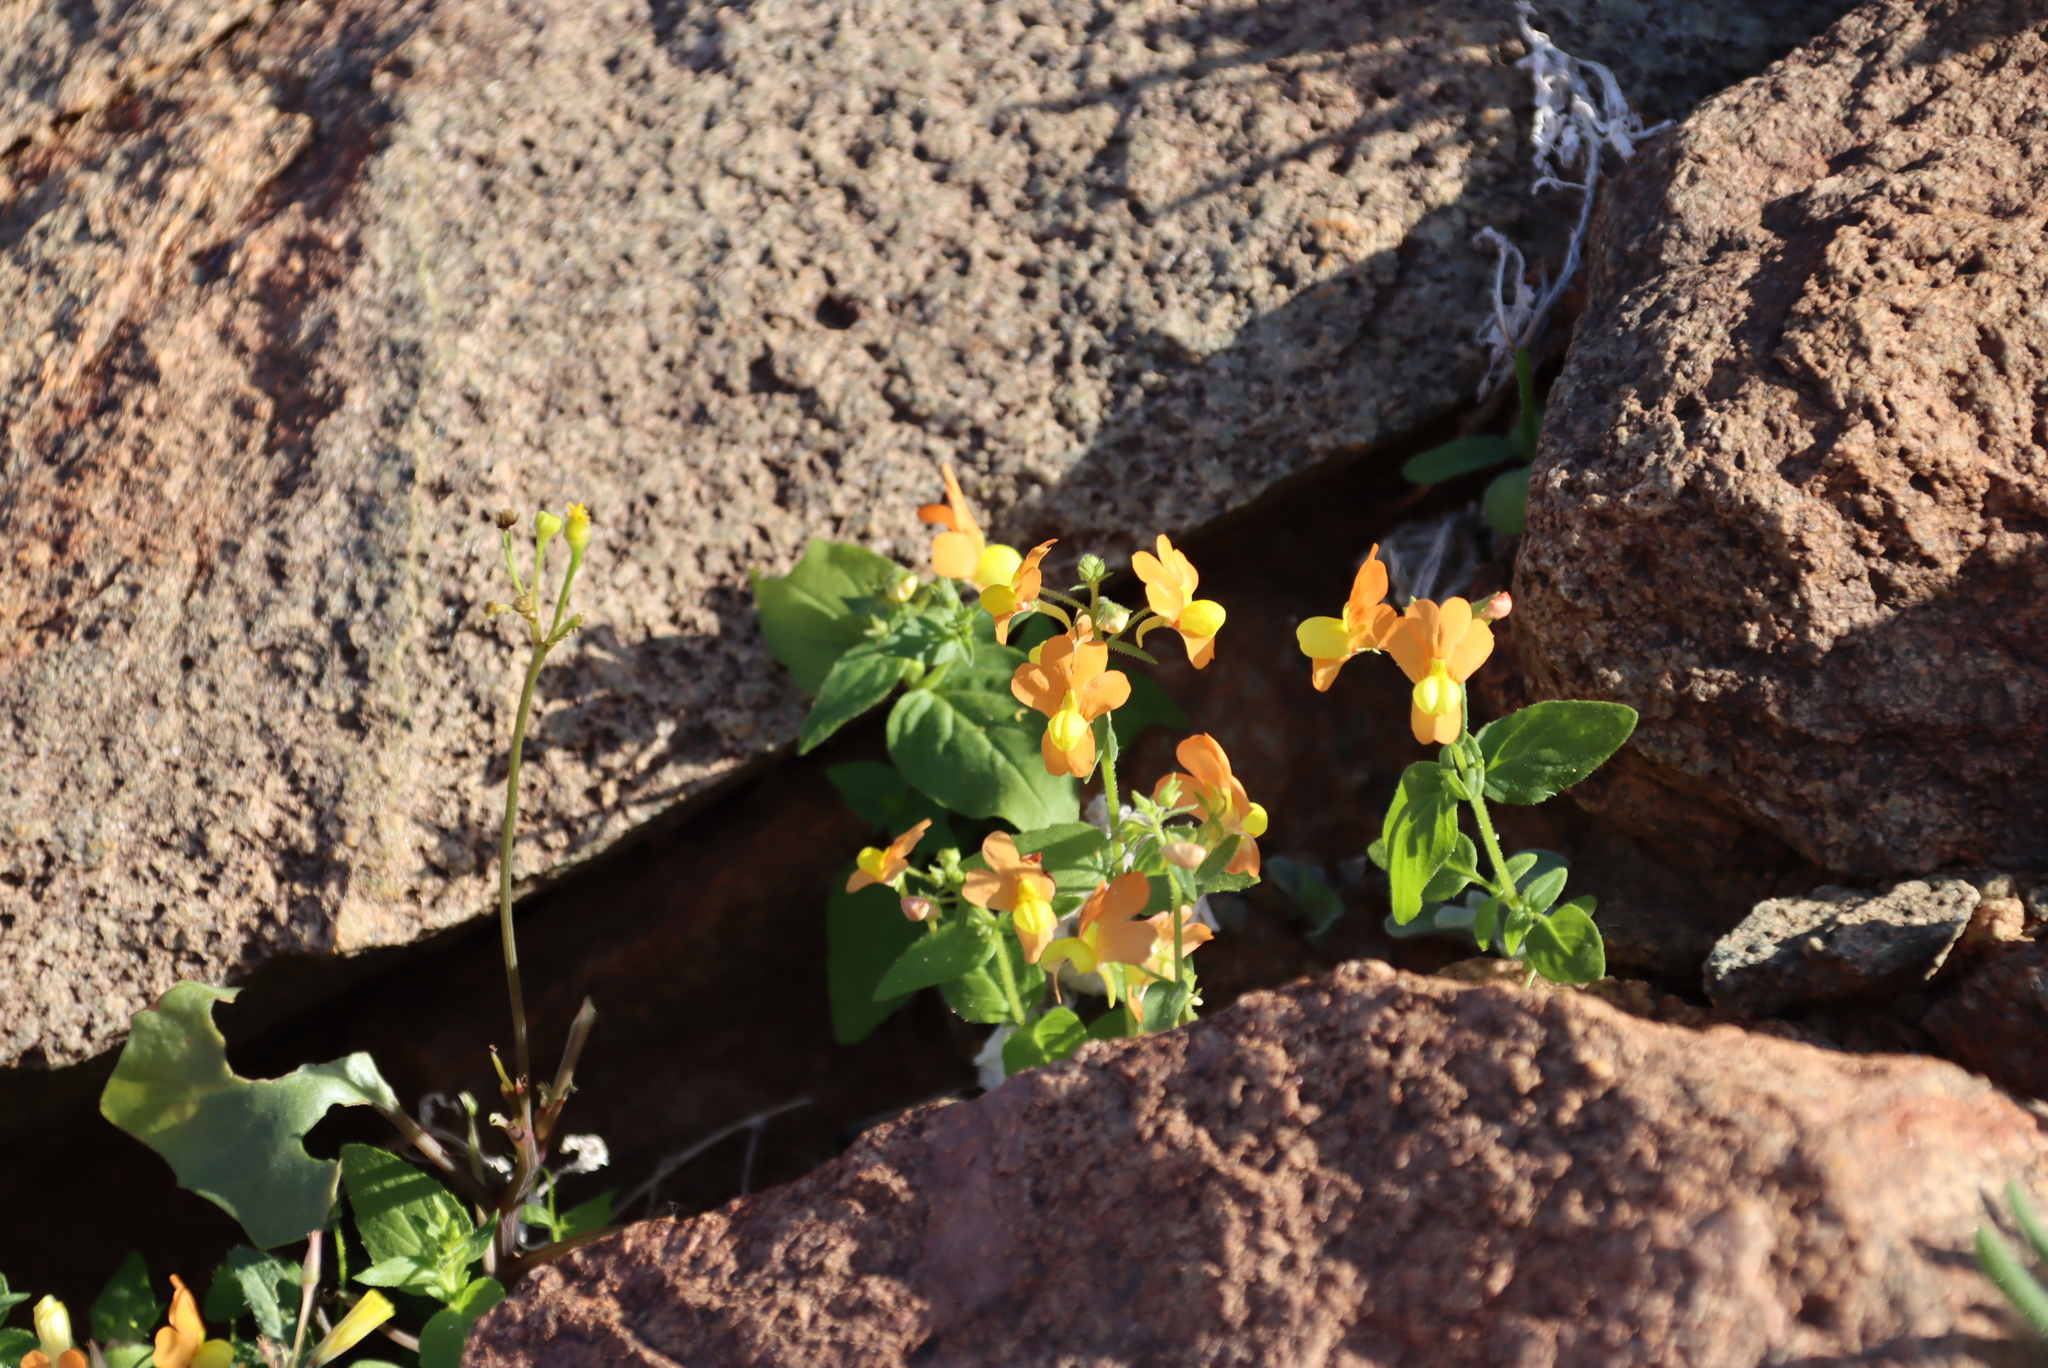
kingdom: Plantae
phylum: Tracheophyta
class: Magnoliopsida
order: Lamiales
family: Scrophulariaceae
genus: Nemesia
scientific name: Nemesia williamsonii
